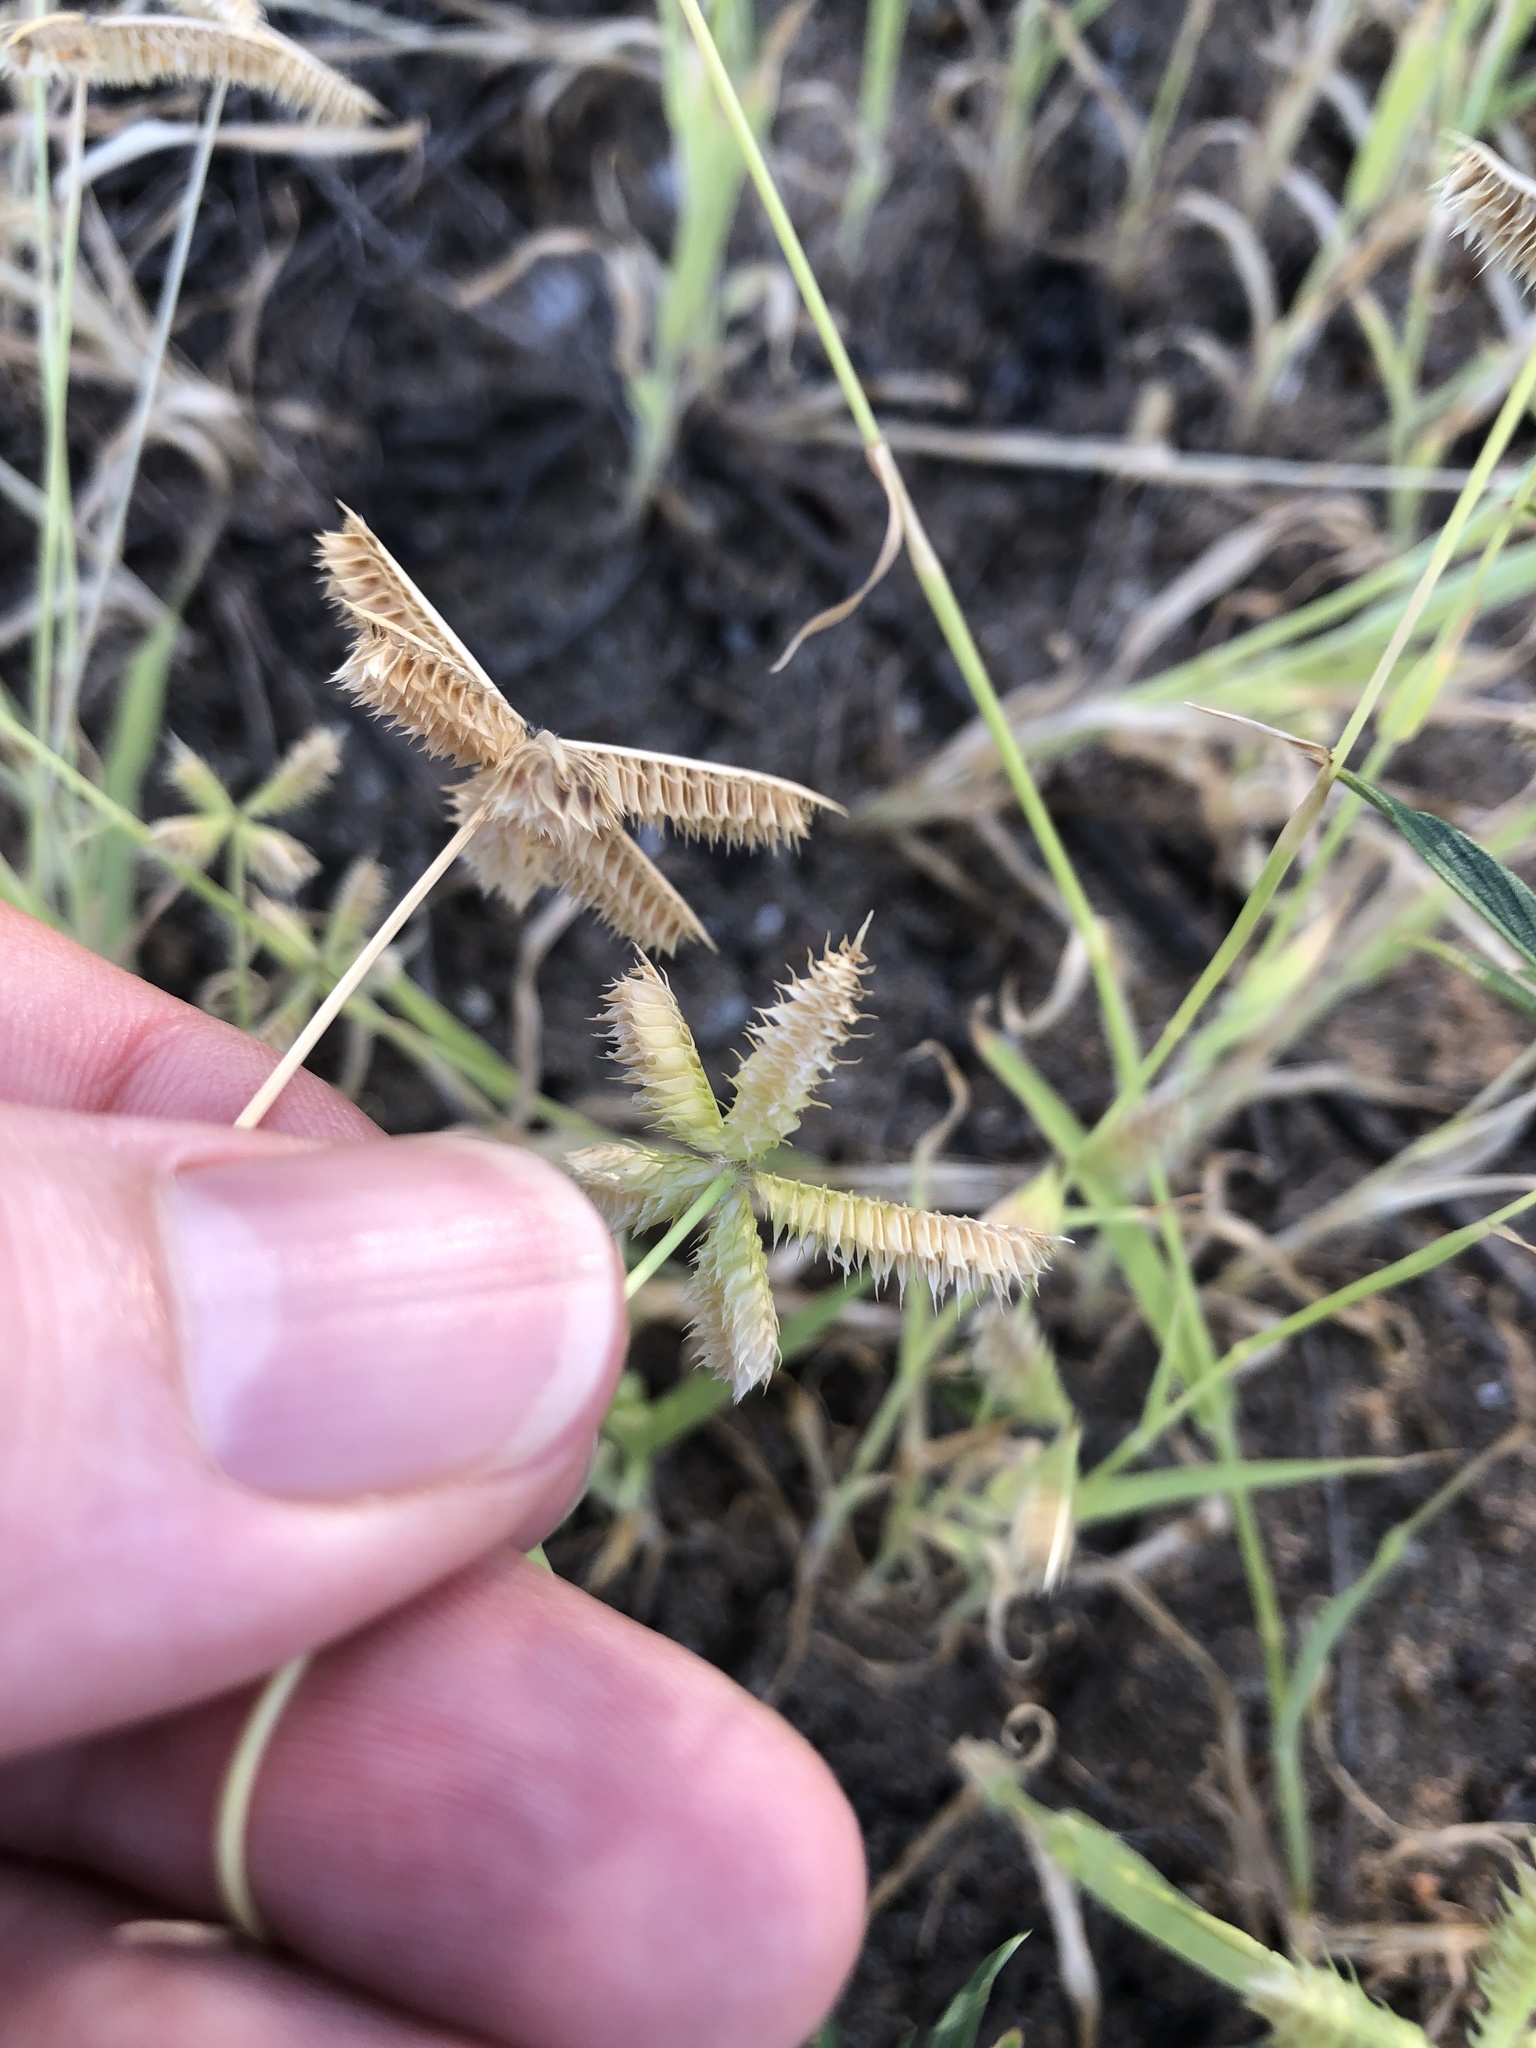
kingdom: Plantae
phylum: Tracheophyta
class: Liliopsida
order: Poales
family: Poaceae
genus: Dactyloctenium
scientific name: Dactyloctenium aegyptium
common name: Egyptian grass
